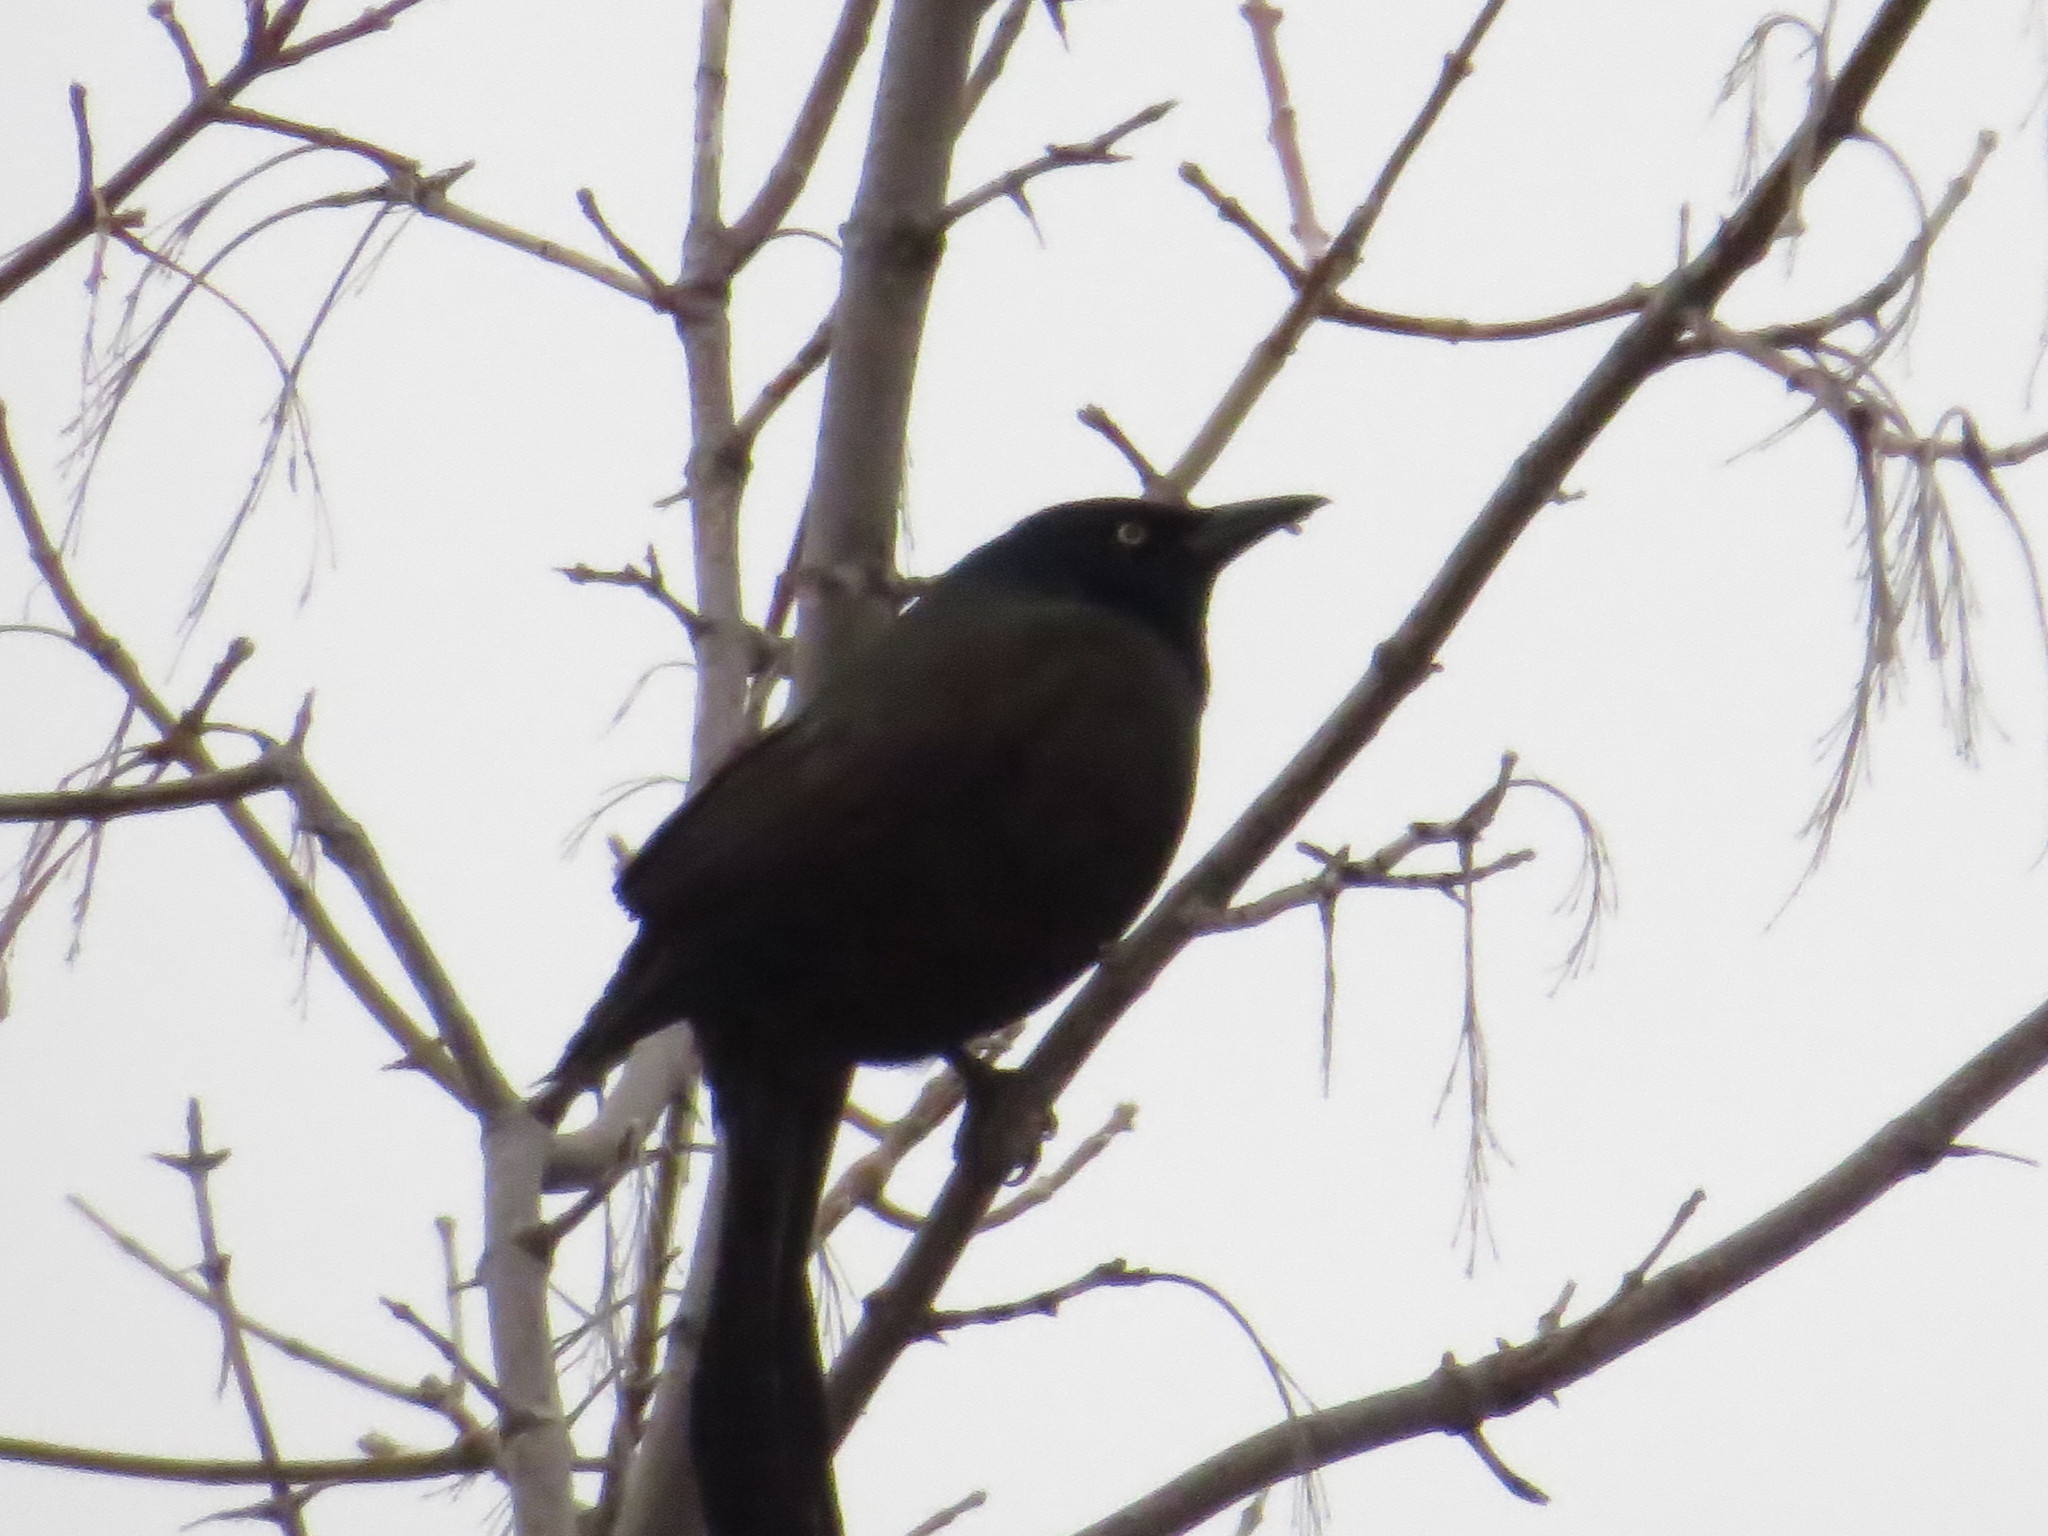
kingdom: Animalia
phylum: Chordata
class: Aves
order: Passeriformes
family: Icteridae
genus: Quiscalus
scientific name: Quiscalus quiscula
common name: Common grackle
